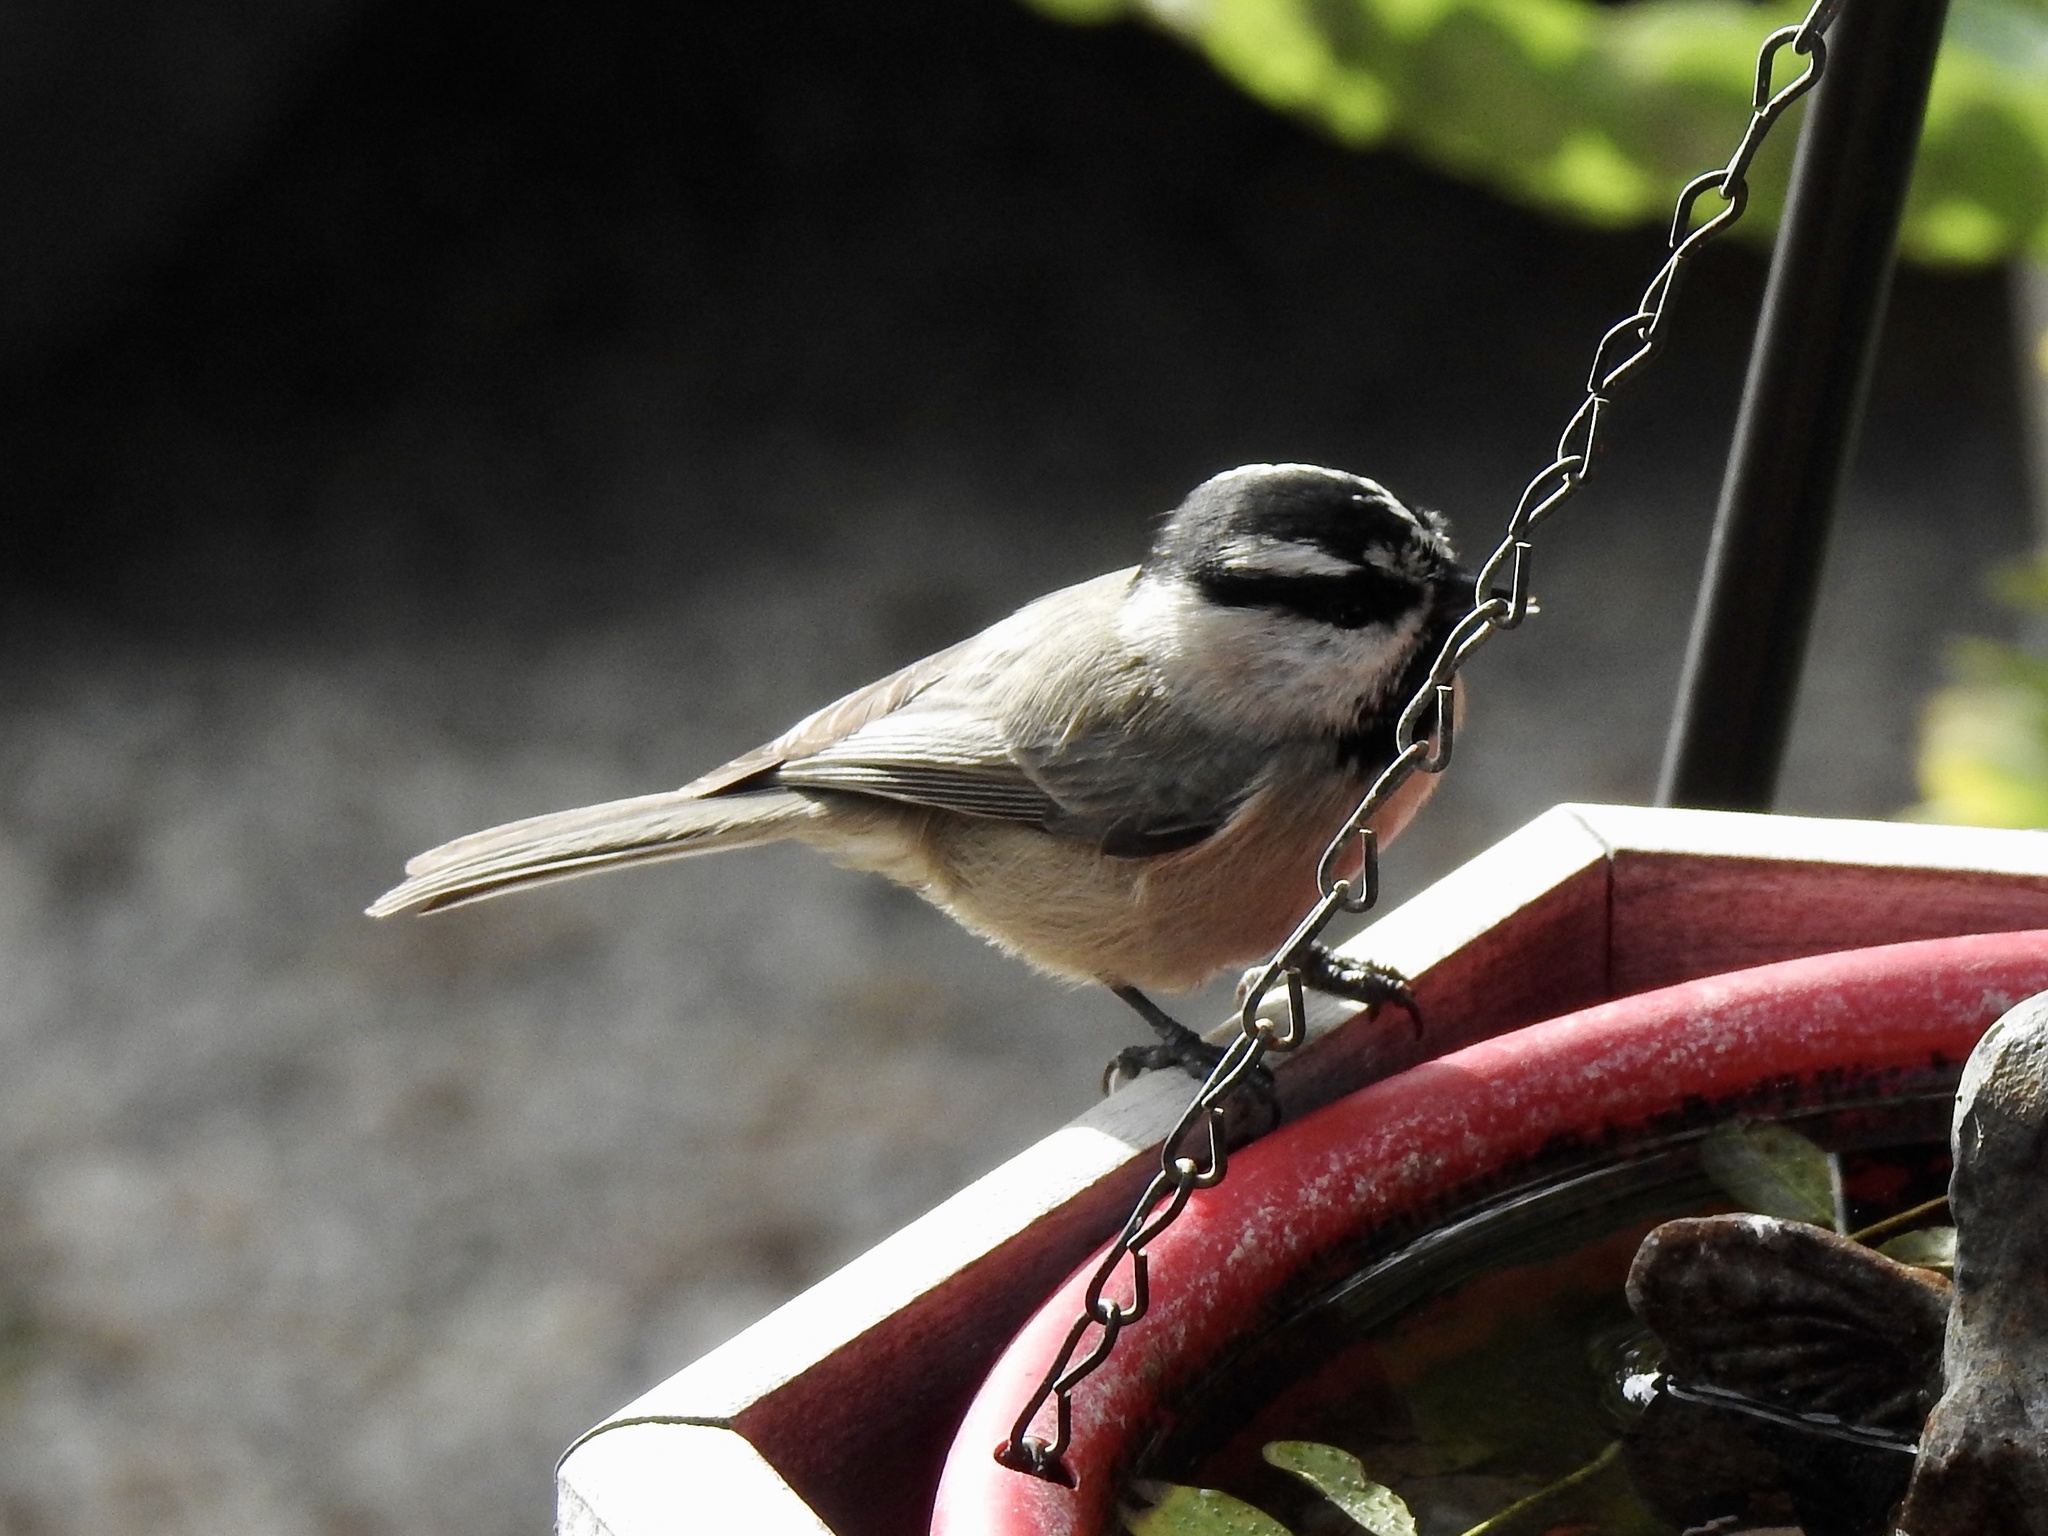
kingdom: Animalia
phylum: Chordata
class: Aves
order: Passeriformes
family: Paridae
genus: Poecile
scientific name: Poecile gambeli
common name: Mountain chickadee
